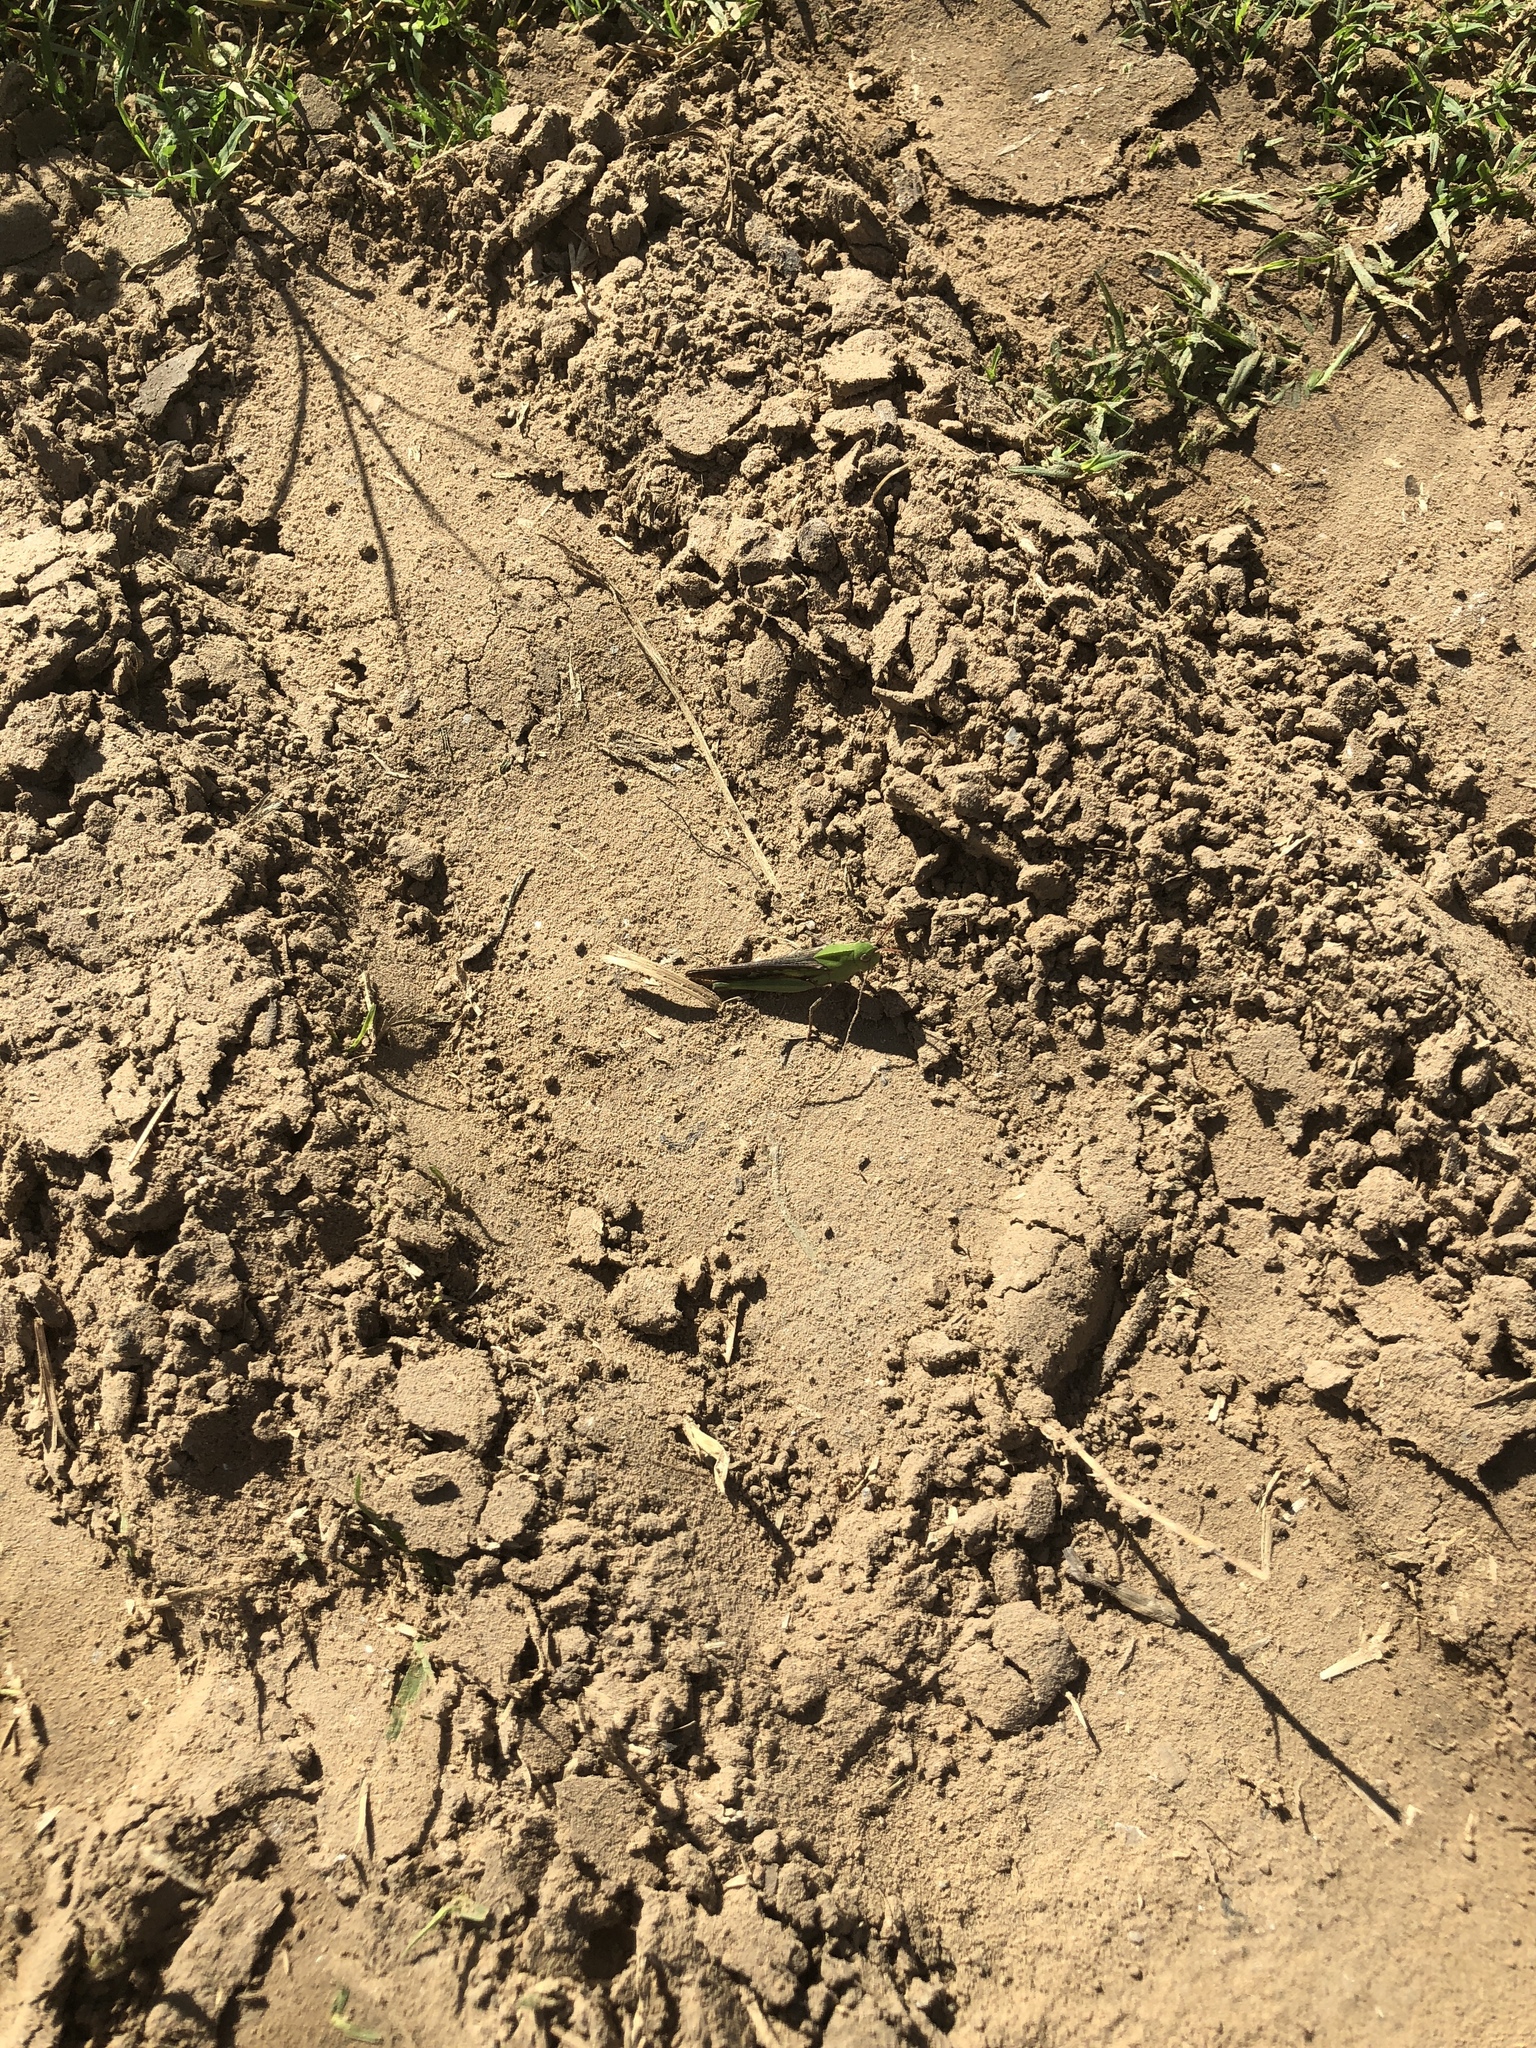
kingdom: Animalia
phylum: Arthropoda
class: Insecta
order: Orthoptera
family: Acrididae
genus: Chortophaga
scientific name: Chortophaga viridifasciata
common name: Green-striped grasshopper
